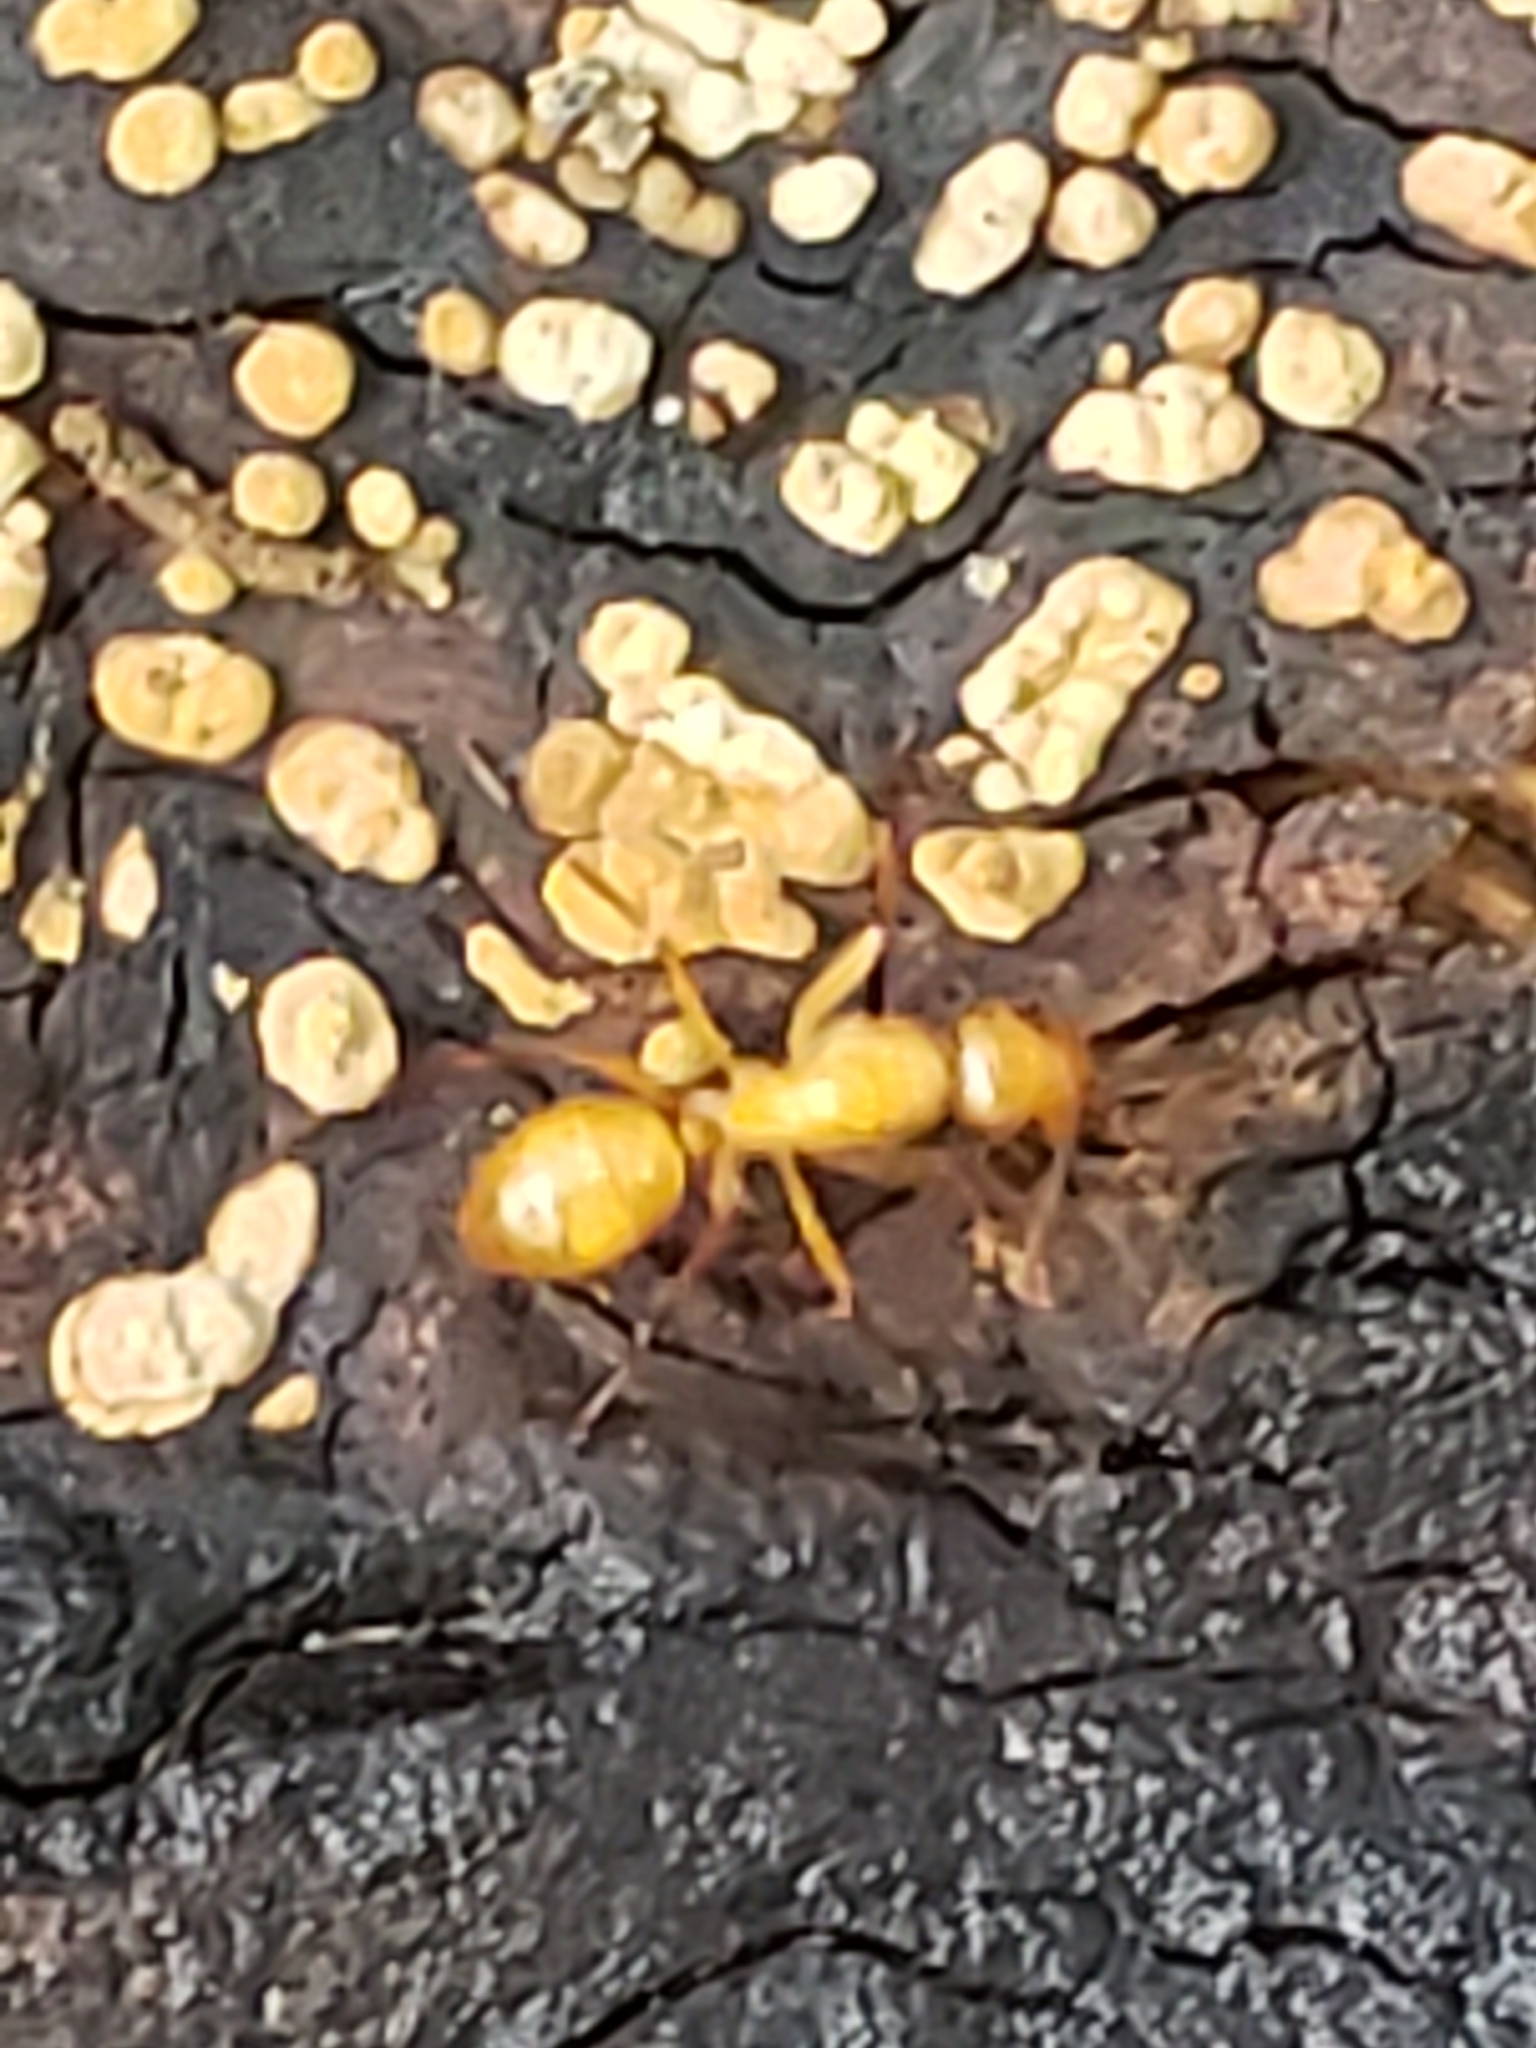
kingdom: Animalia
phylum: Arthropoda
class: Insecta
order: Hymenoptera
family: Formicidae
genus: Camponotus
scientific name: Camponotus castaneus
